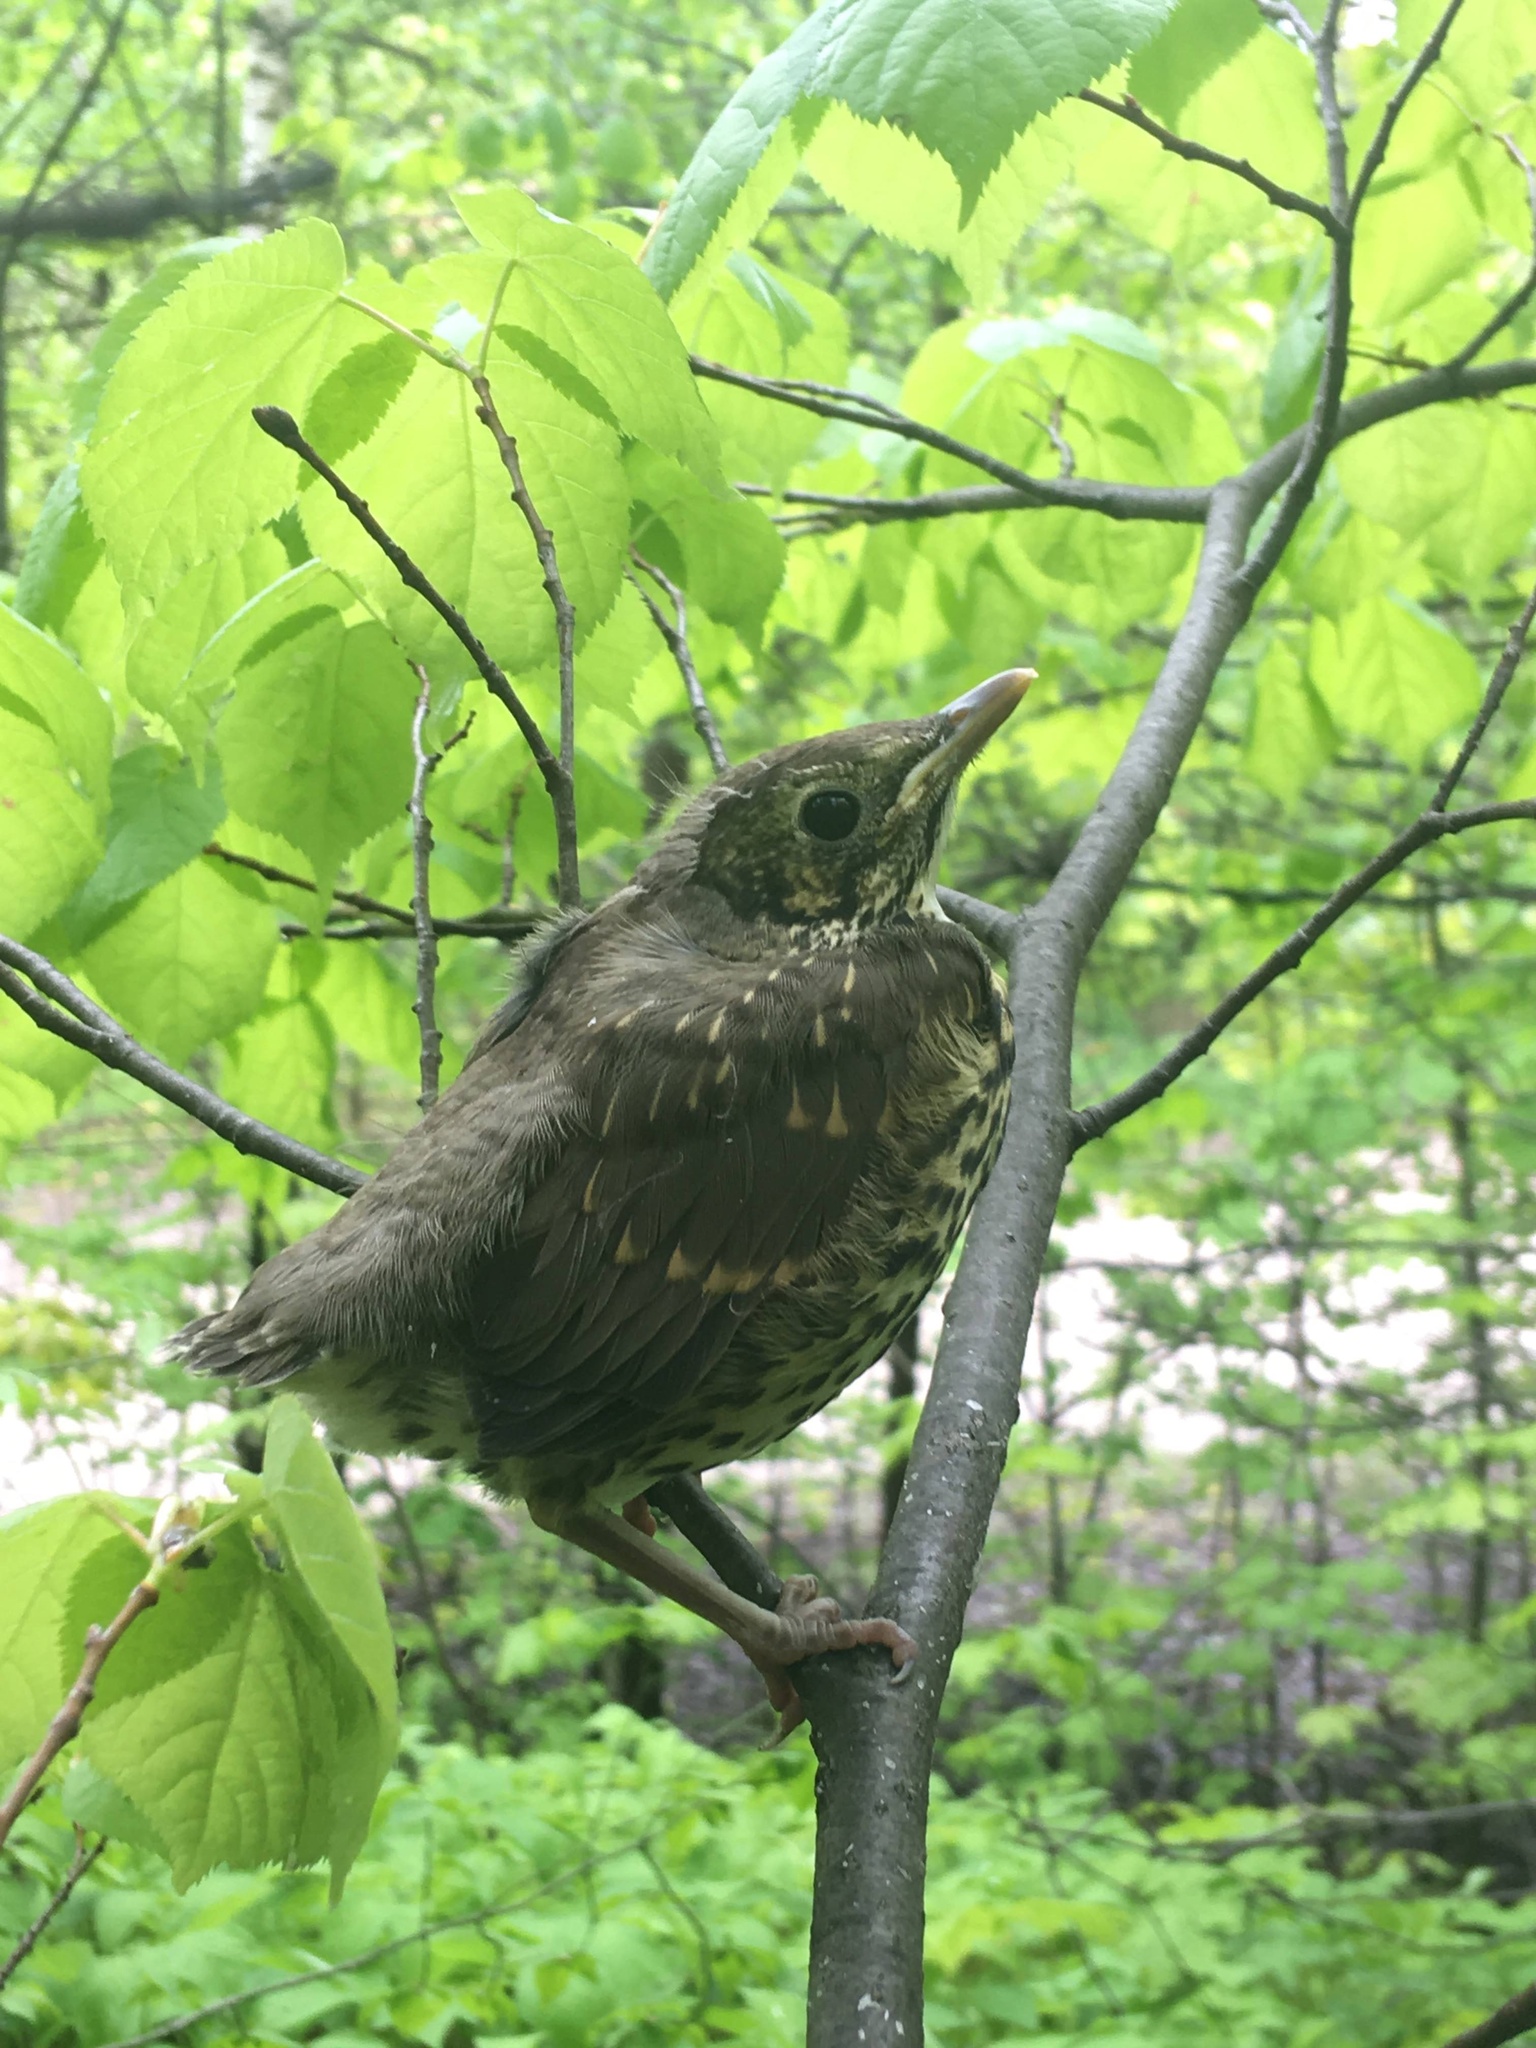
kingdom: Animalia
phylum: Chordata
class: Aves
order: Passeriformes
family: Turdidae
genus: Turdus
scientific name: Turdus philomelos
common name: Song thrush
